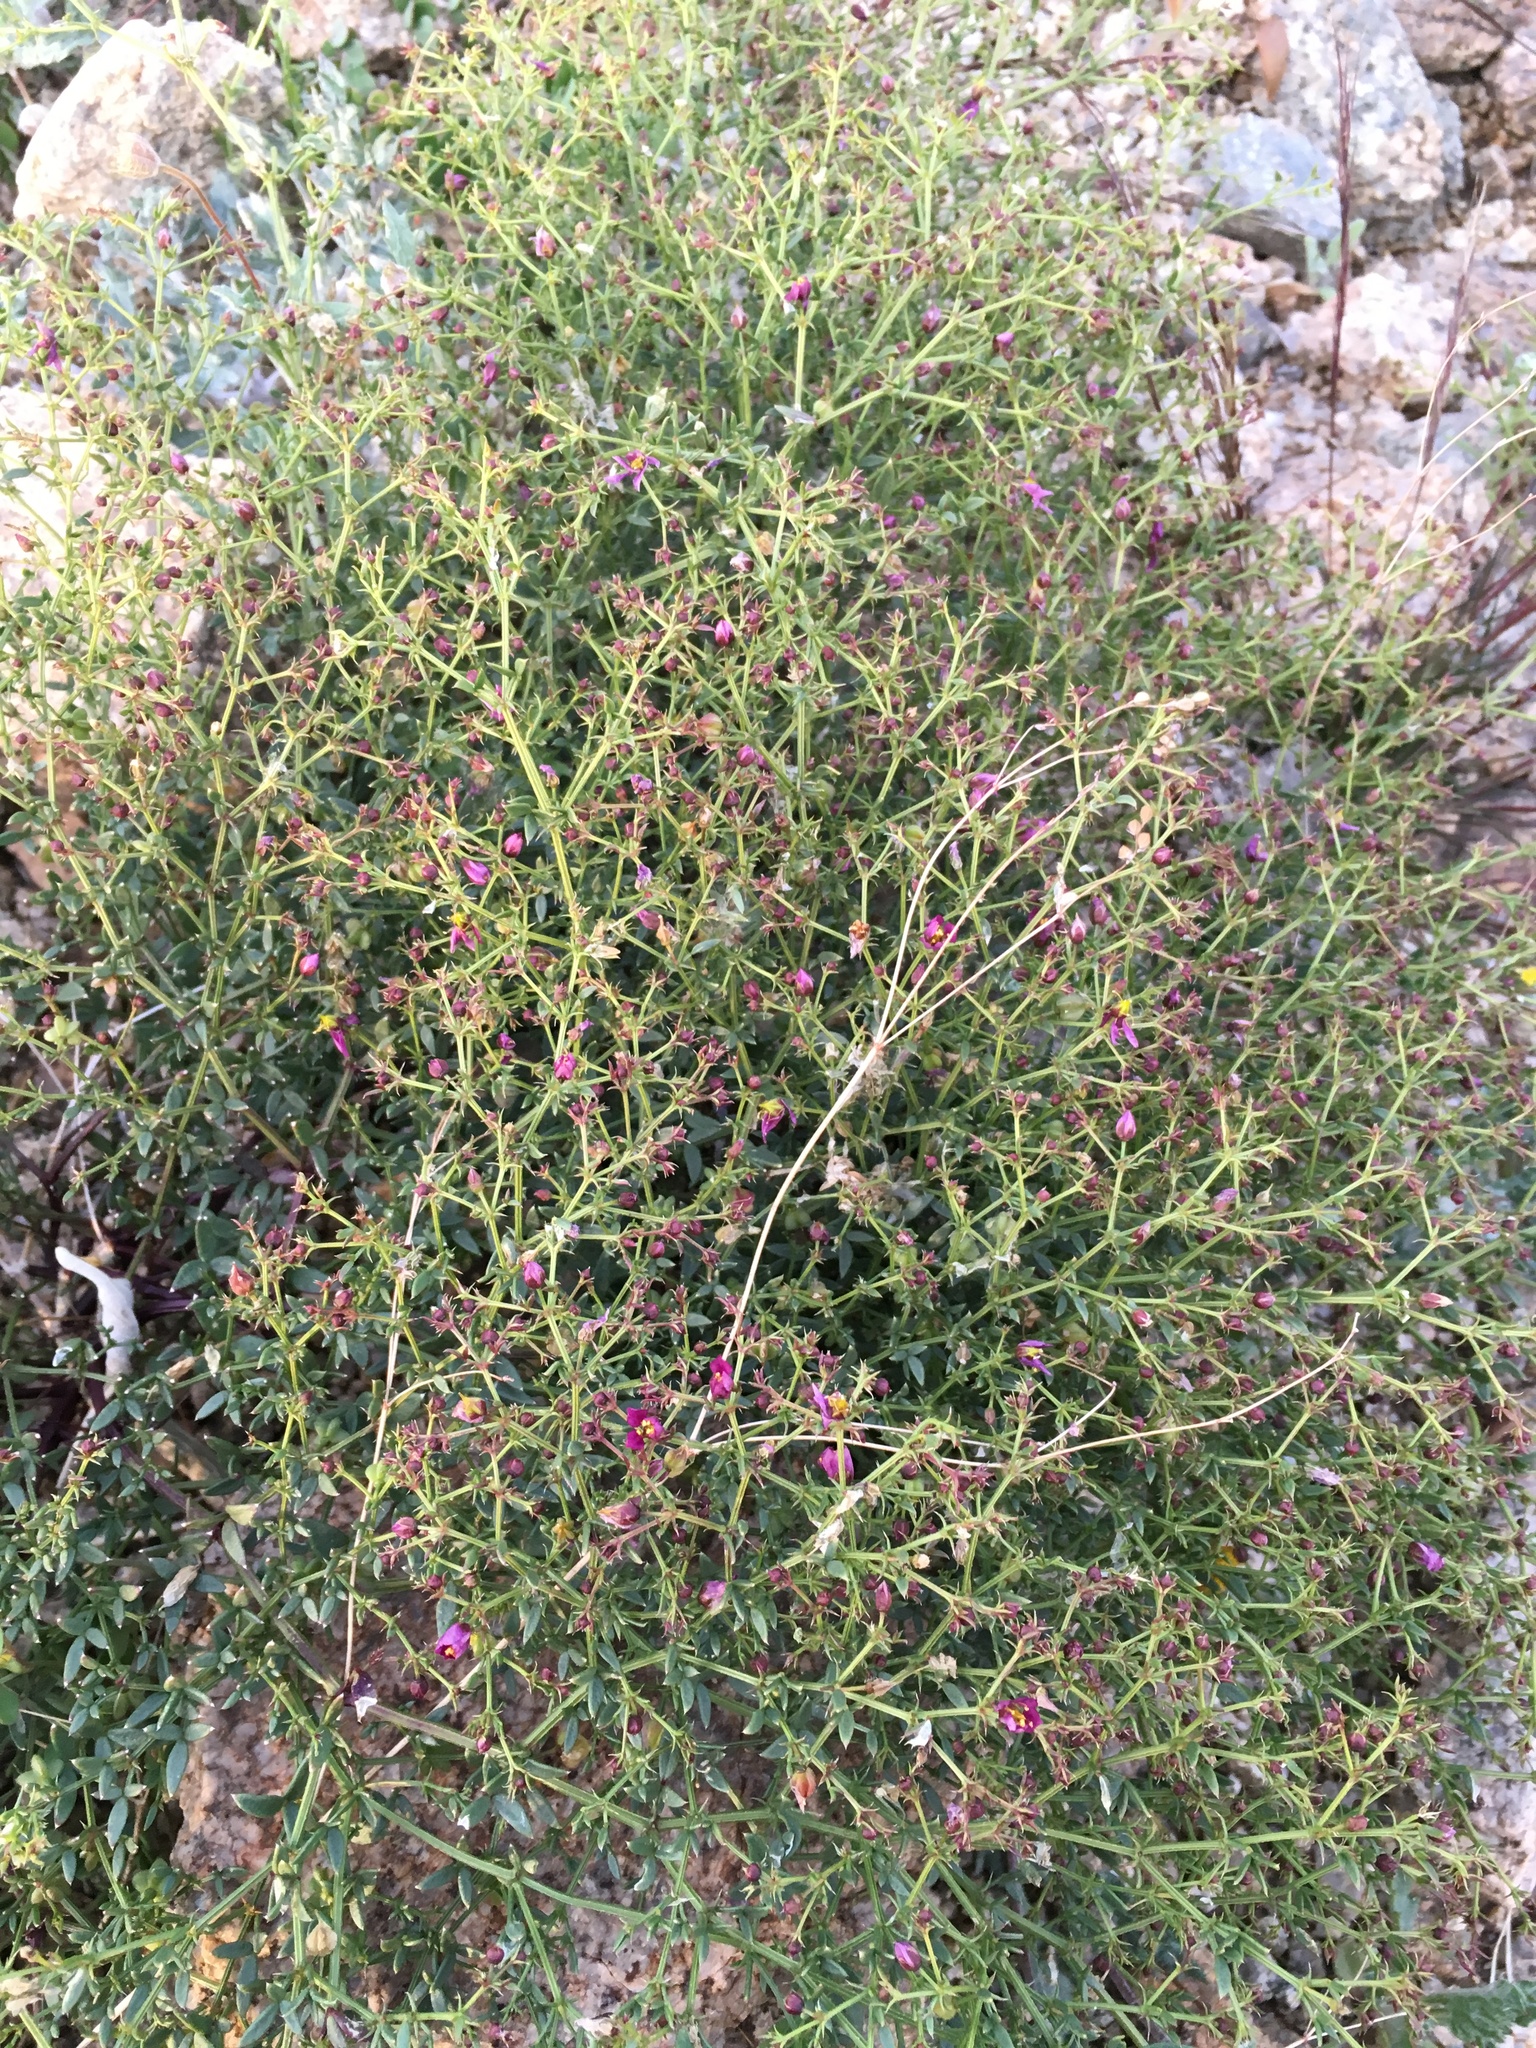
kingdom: Plantae
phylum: Tracheophyta
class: Magnoliopsida
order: Zygophyllales
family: Zygophyllaceae
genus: Fagonia
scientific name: Fagonia laevis
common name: California fagonbush
